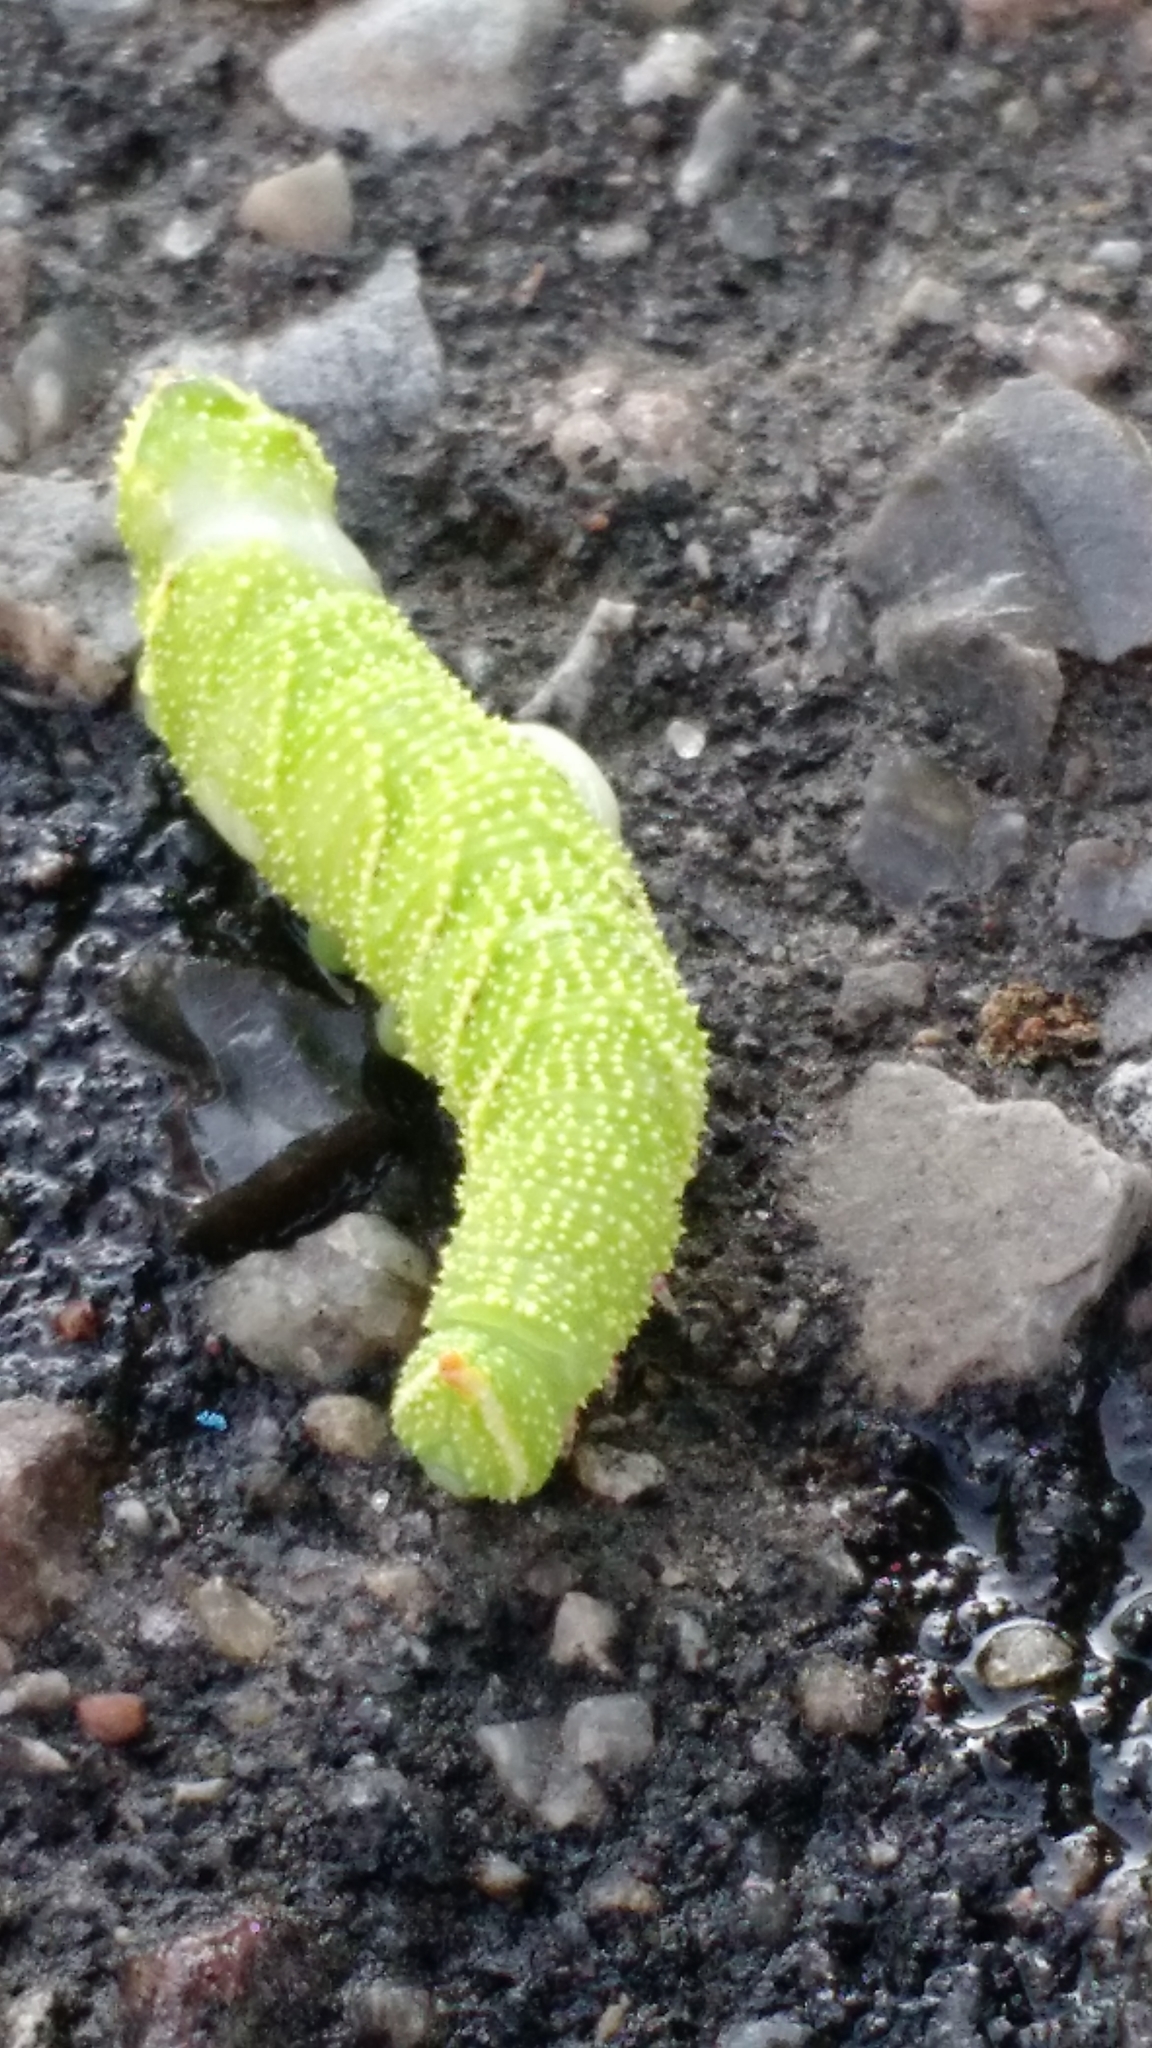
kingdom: Animalia
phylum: Arthropoda
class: Insecta
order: Lepidoptera
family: Sphingidae
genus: Mimas
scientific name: Mimas tiliae
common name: Lime hawk-moth
